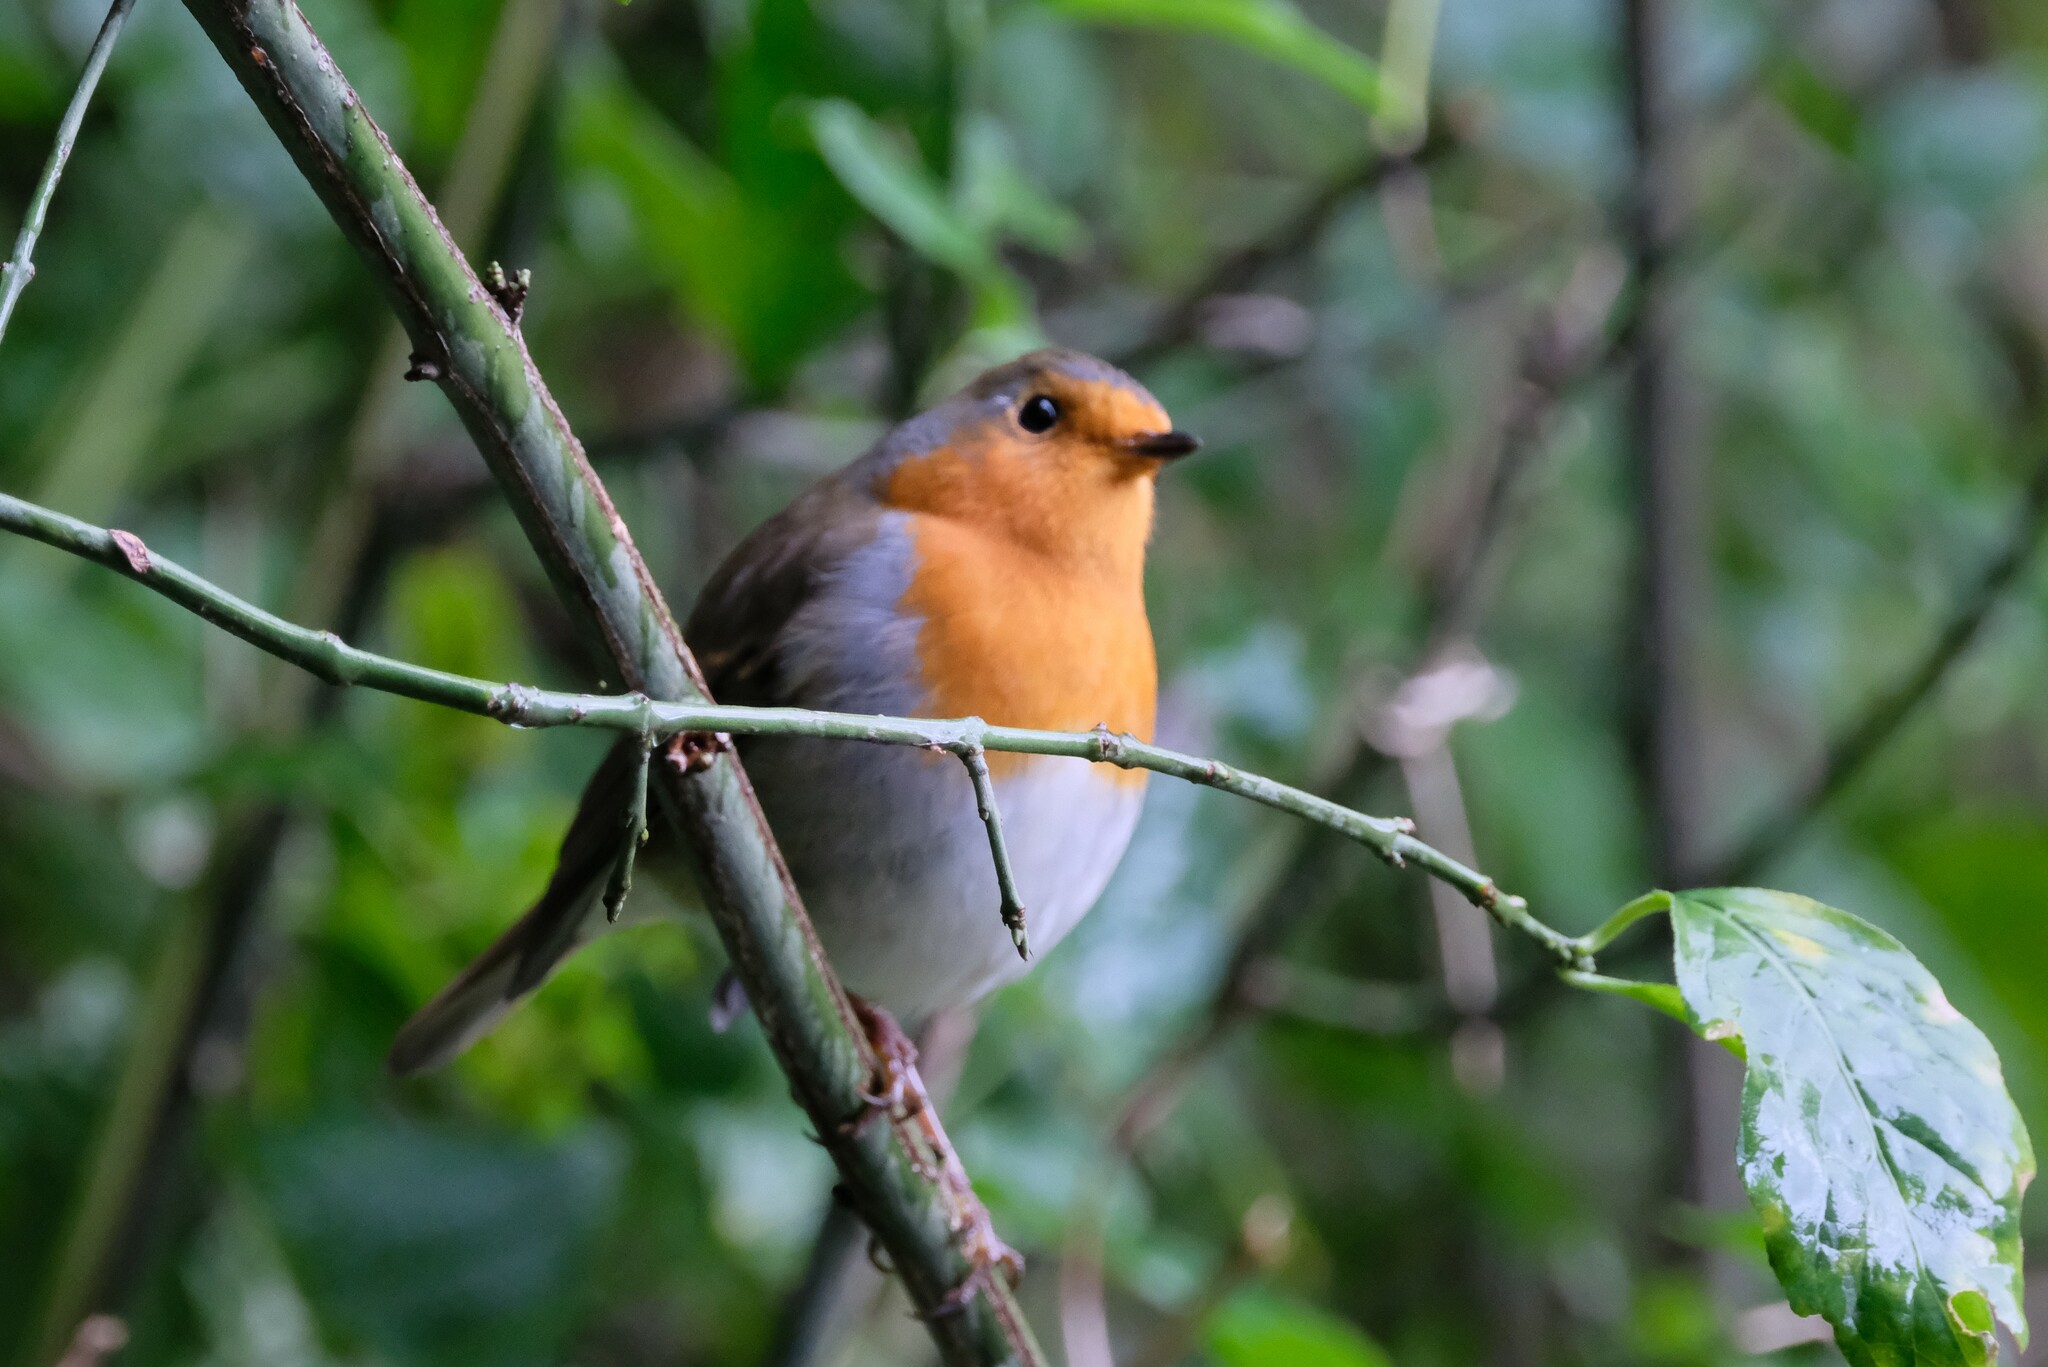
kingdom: Animalia
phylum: Chordata
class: Aves
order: Passeriformes
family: Muscicapidae
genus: Erithacus
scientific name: Erithacus rubecula
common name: European robin
